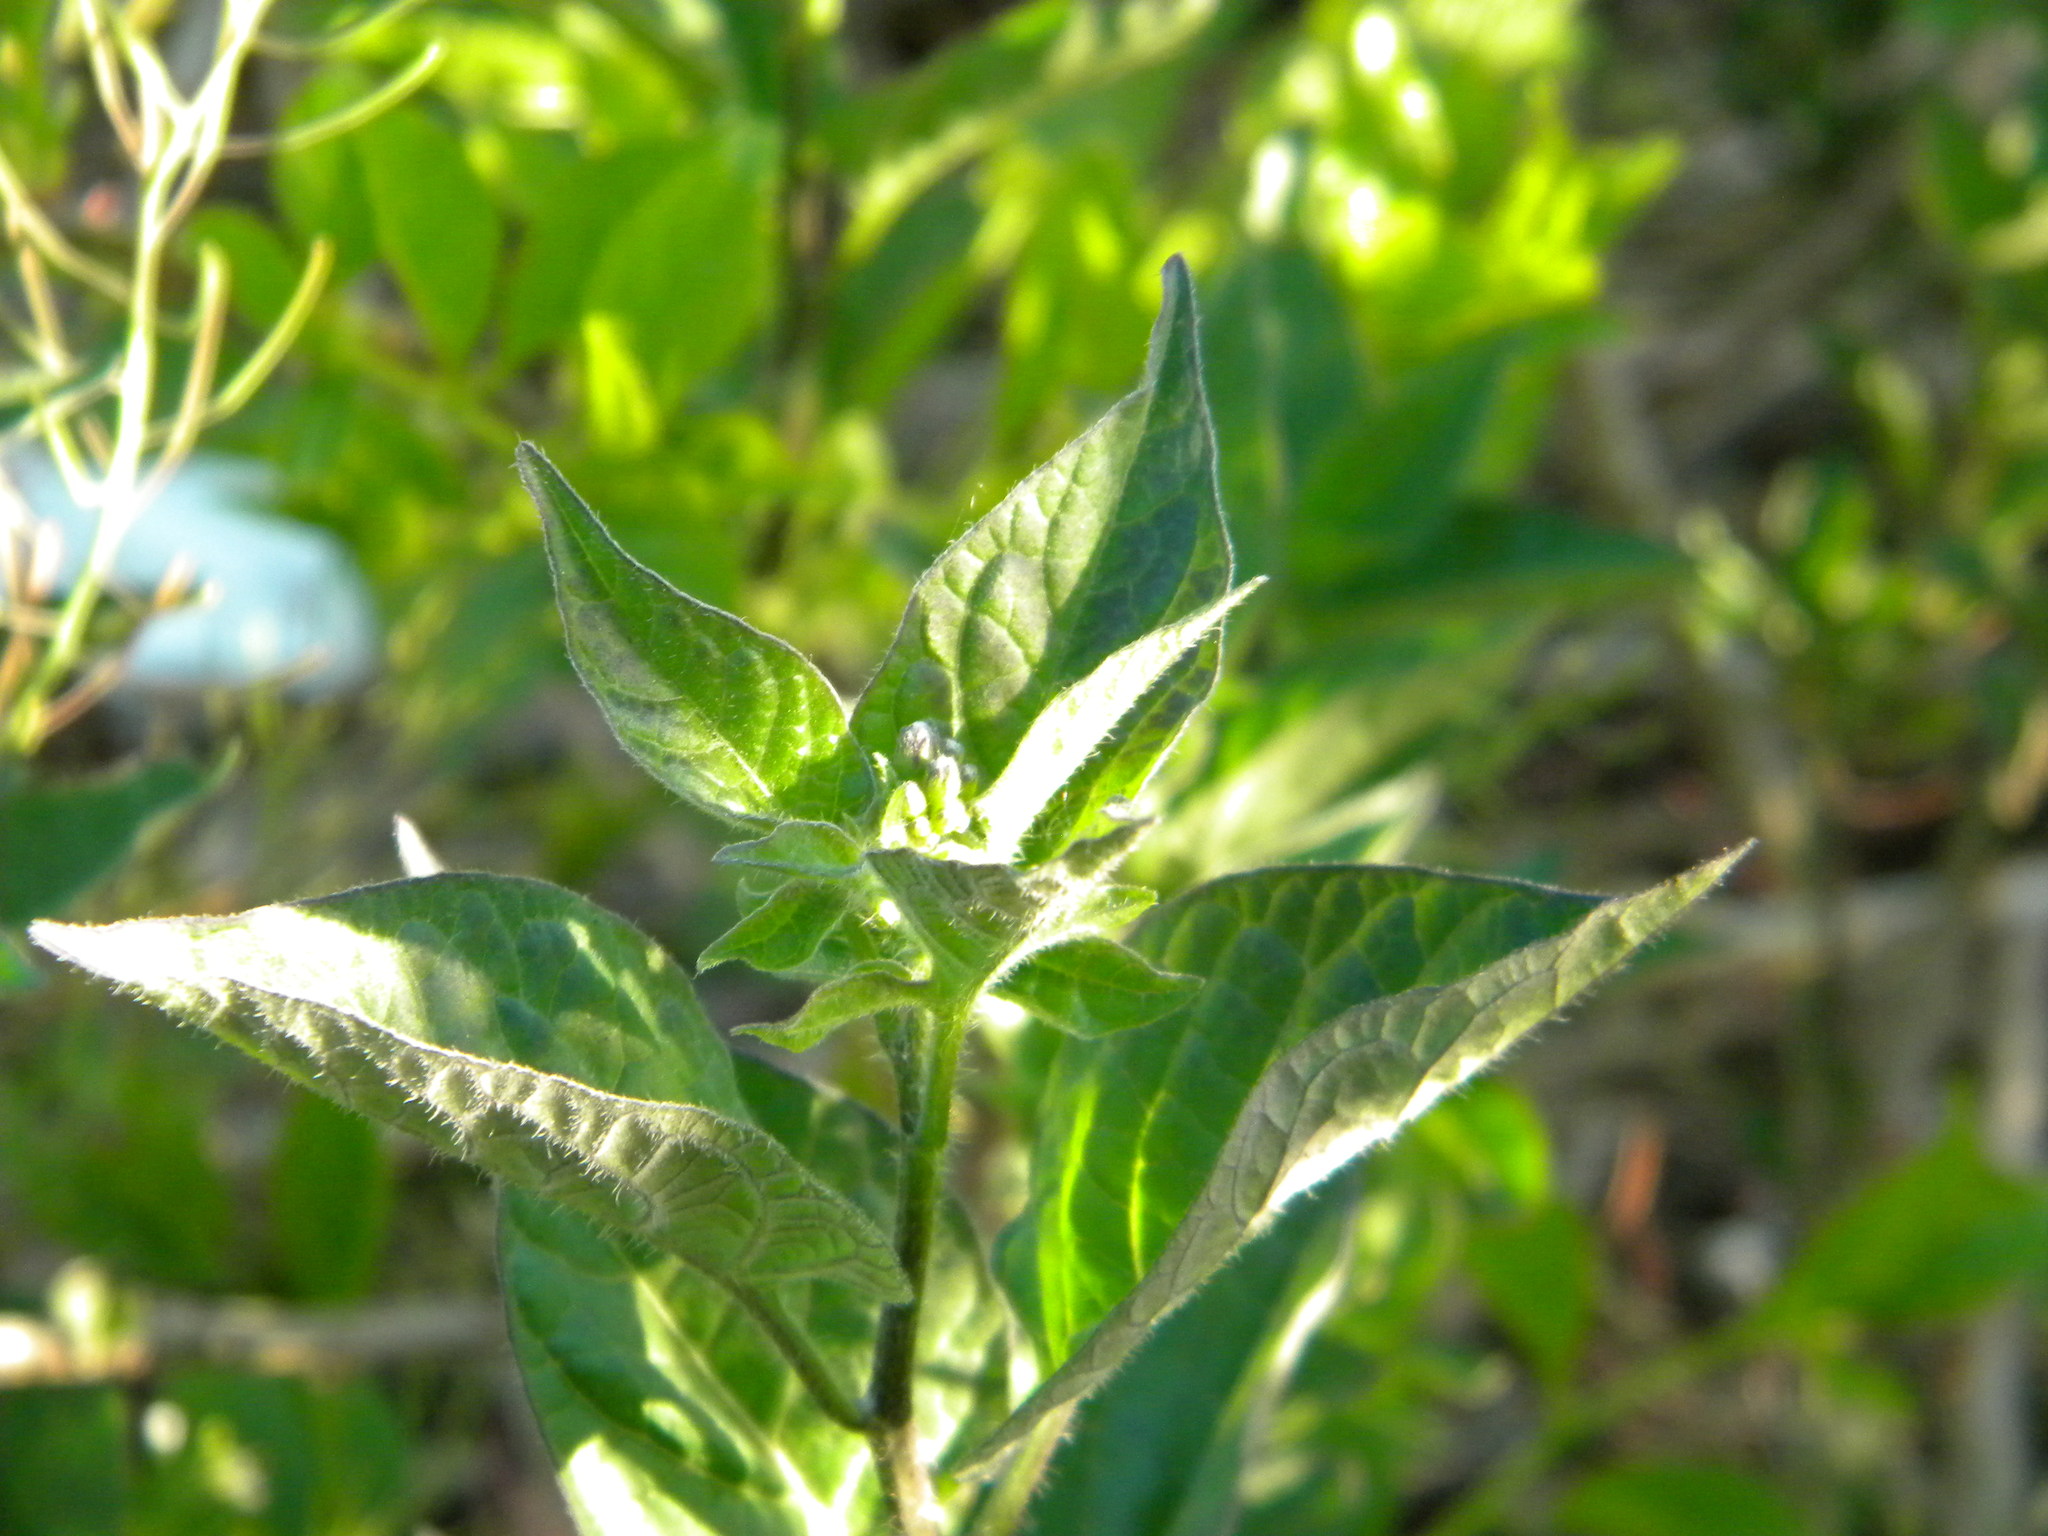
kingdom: Plantae
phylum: Tracheophyta
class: Magnoliopsida
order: Solanales
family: Solanaceae
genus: Solanum
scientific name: Solanum dulcamara
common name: Climbing nightshade
